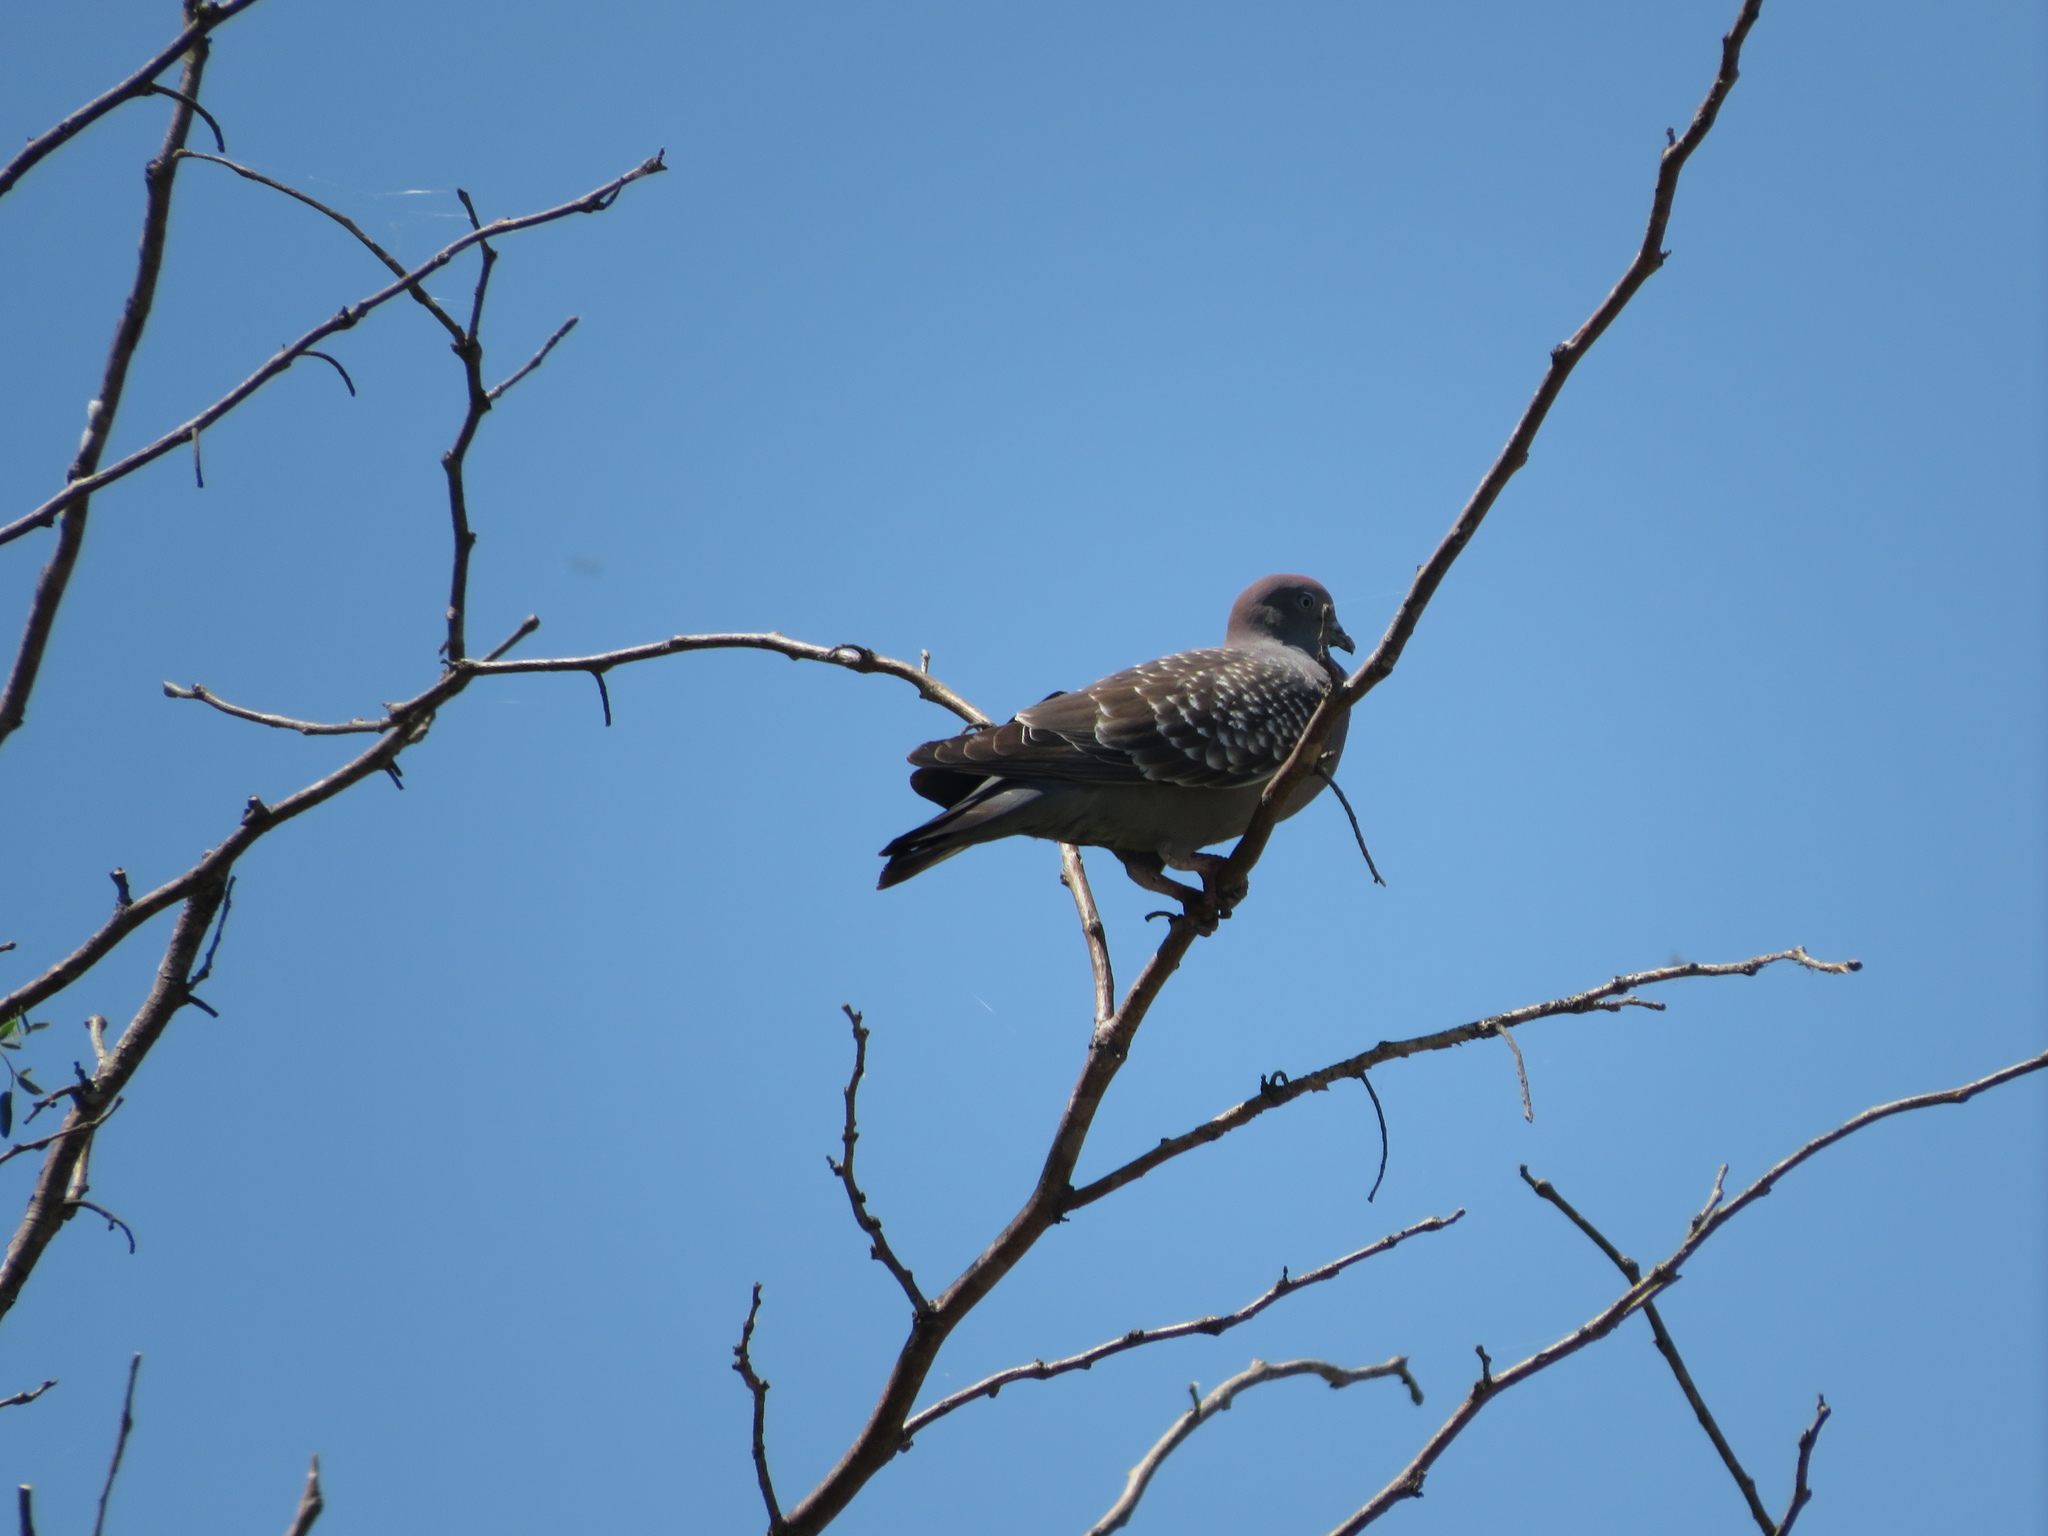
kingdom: Animalia
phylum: Chordata
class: Aves
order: Columbiformes
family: Columbidae
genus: Patagioenas
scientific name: Patagioenas maculosa
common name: Spot-winged pigeon
